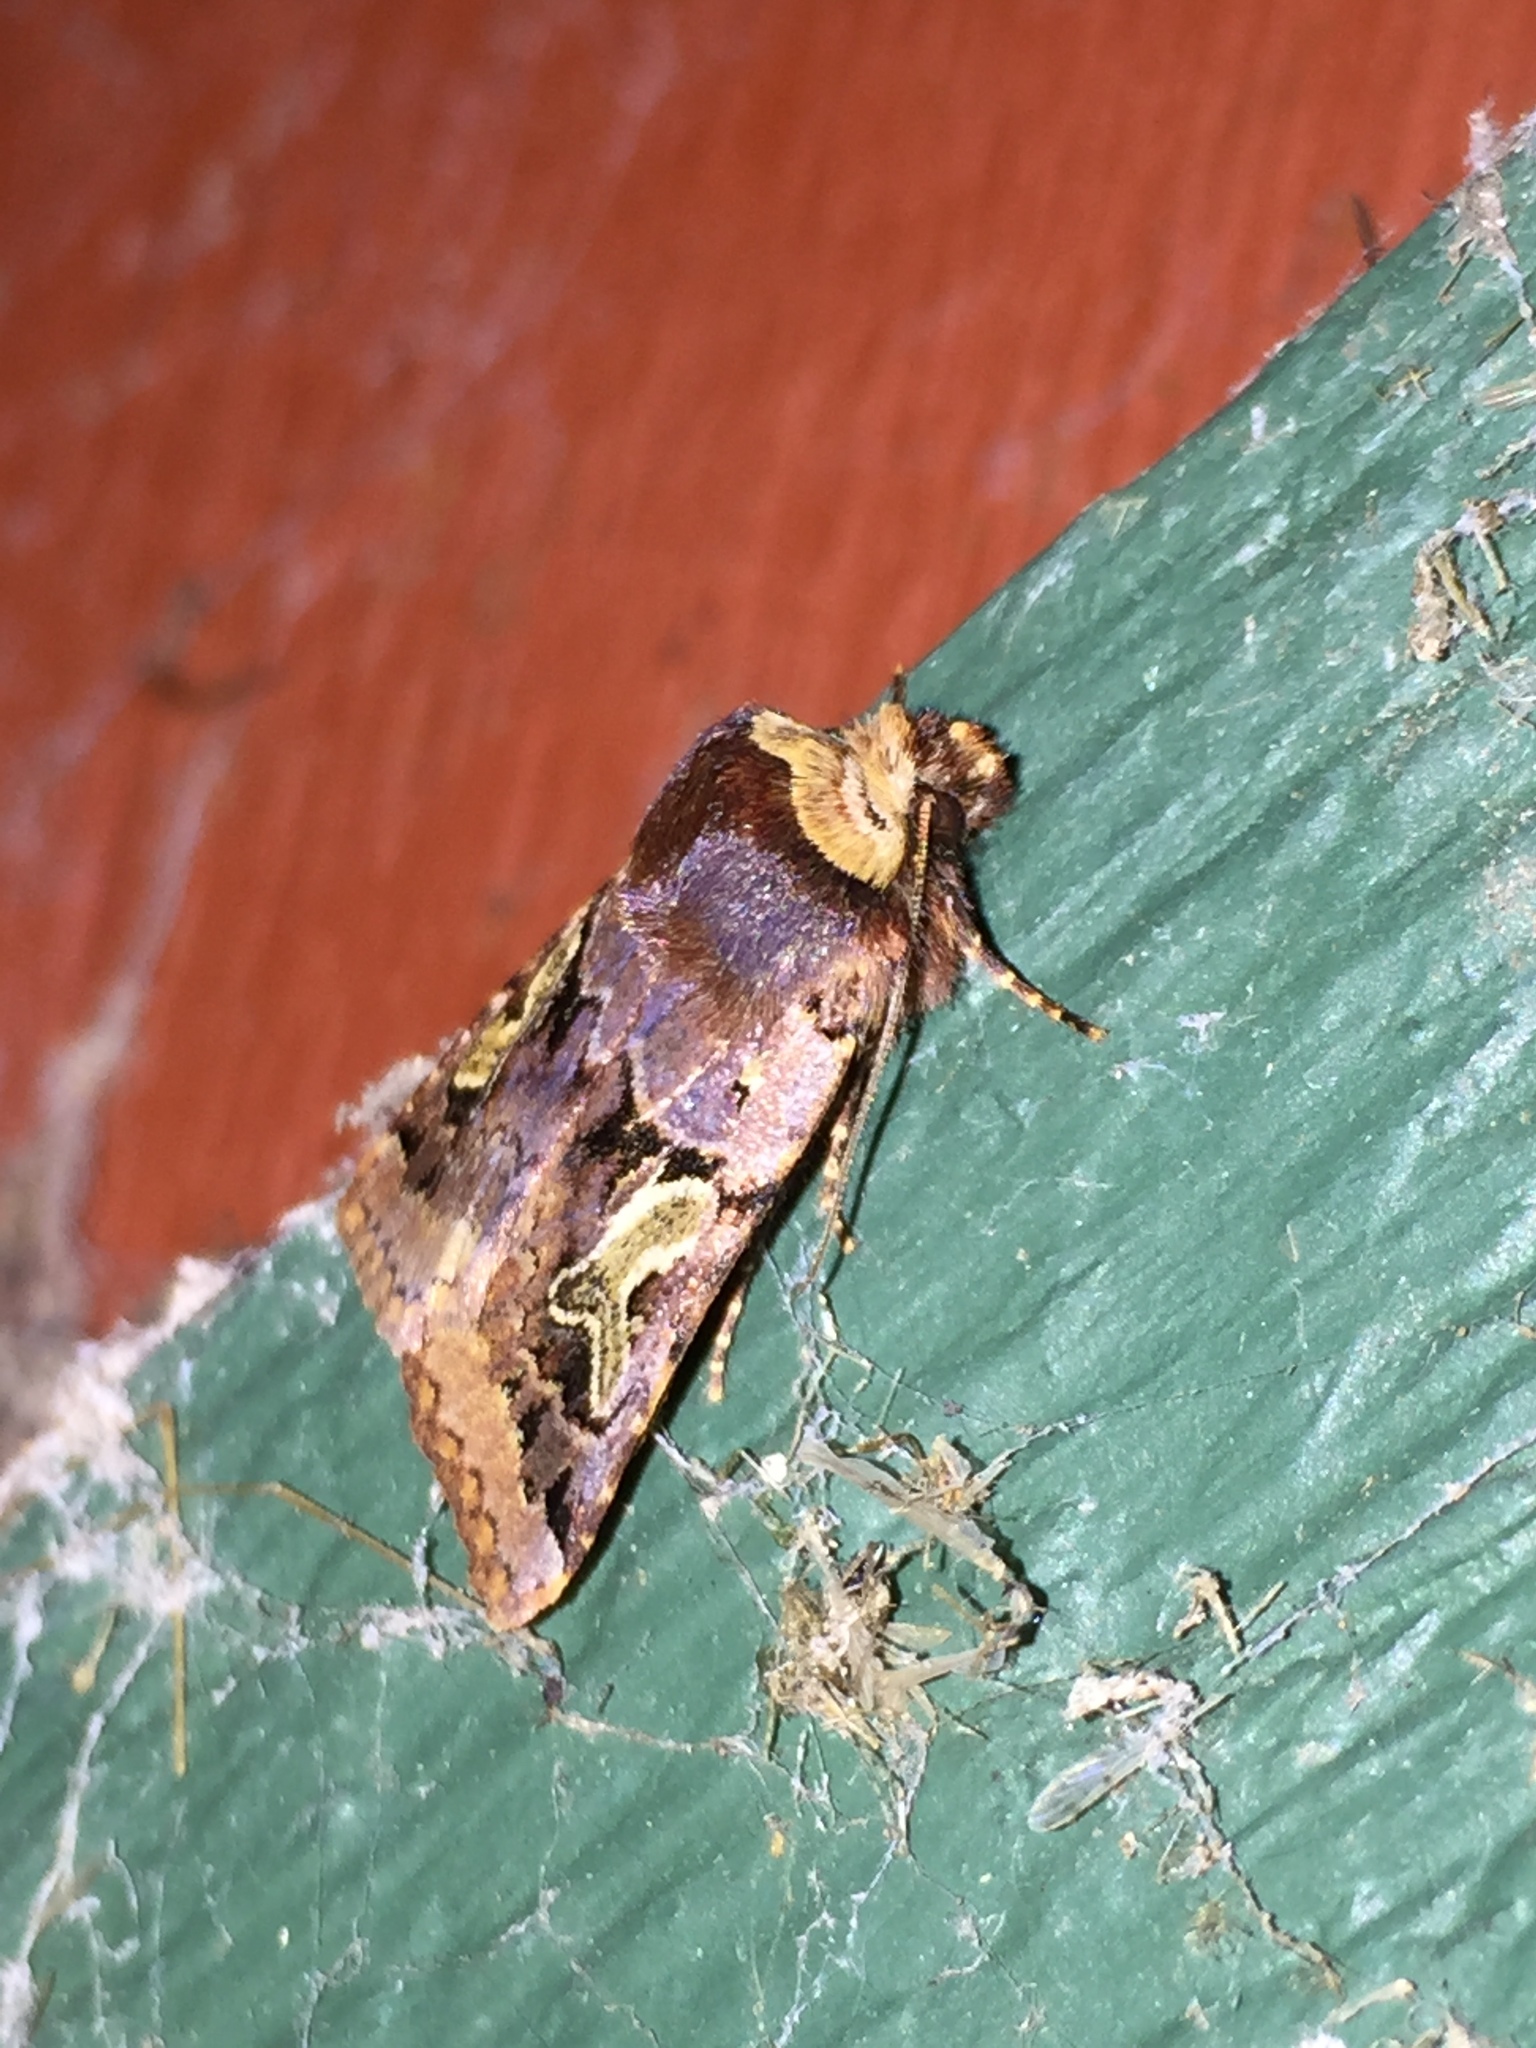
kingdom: Animalia
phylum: Arthropoda
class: Insecta
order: Lepidoptera
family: Noctuidae
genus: Cerastis
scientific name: Cerastis enigmatica
